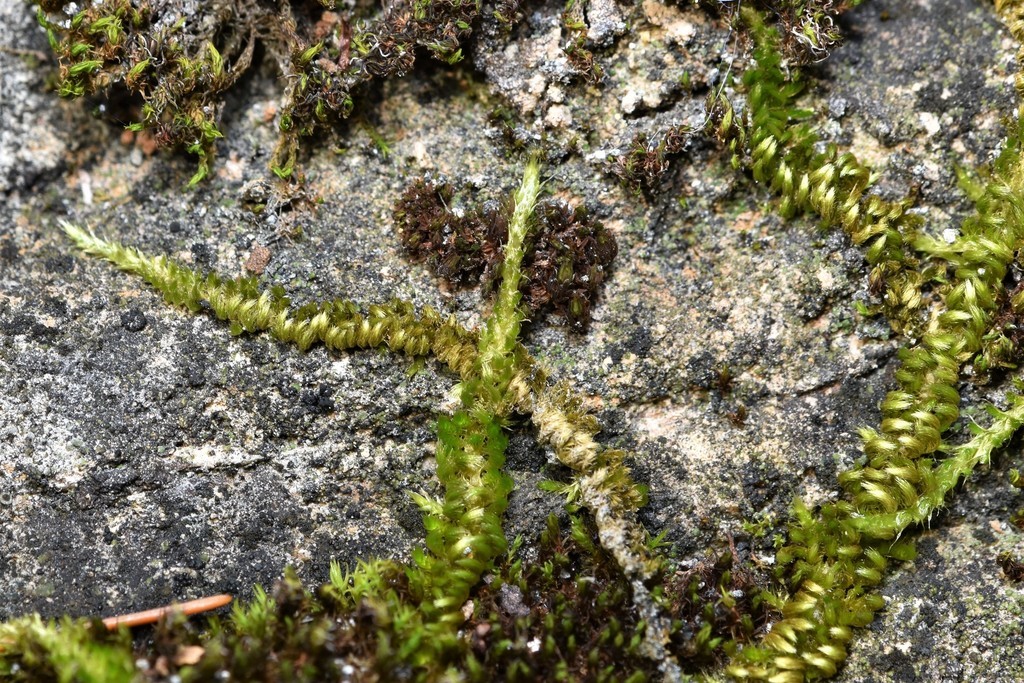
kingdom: Plantae
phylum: Bryophyta
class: Bryopsida
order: Hypnales
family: Brachytheciaceae
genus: Homalothecium
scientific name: Homalothecium nuttallii
